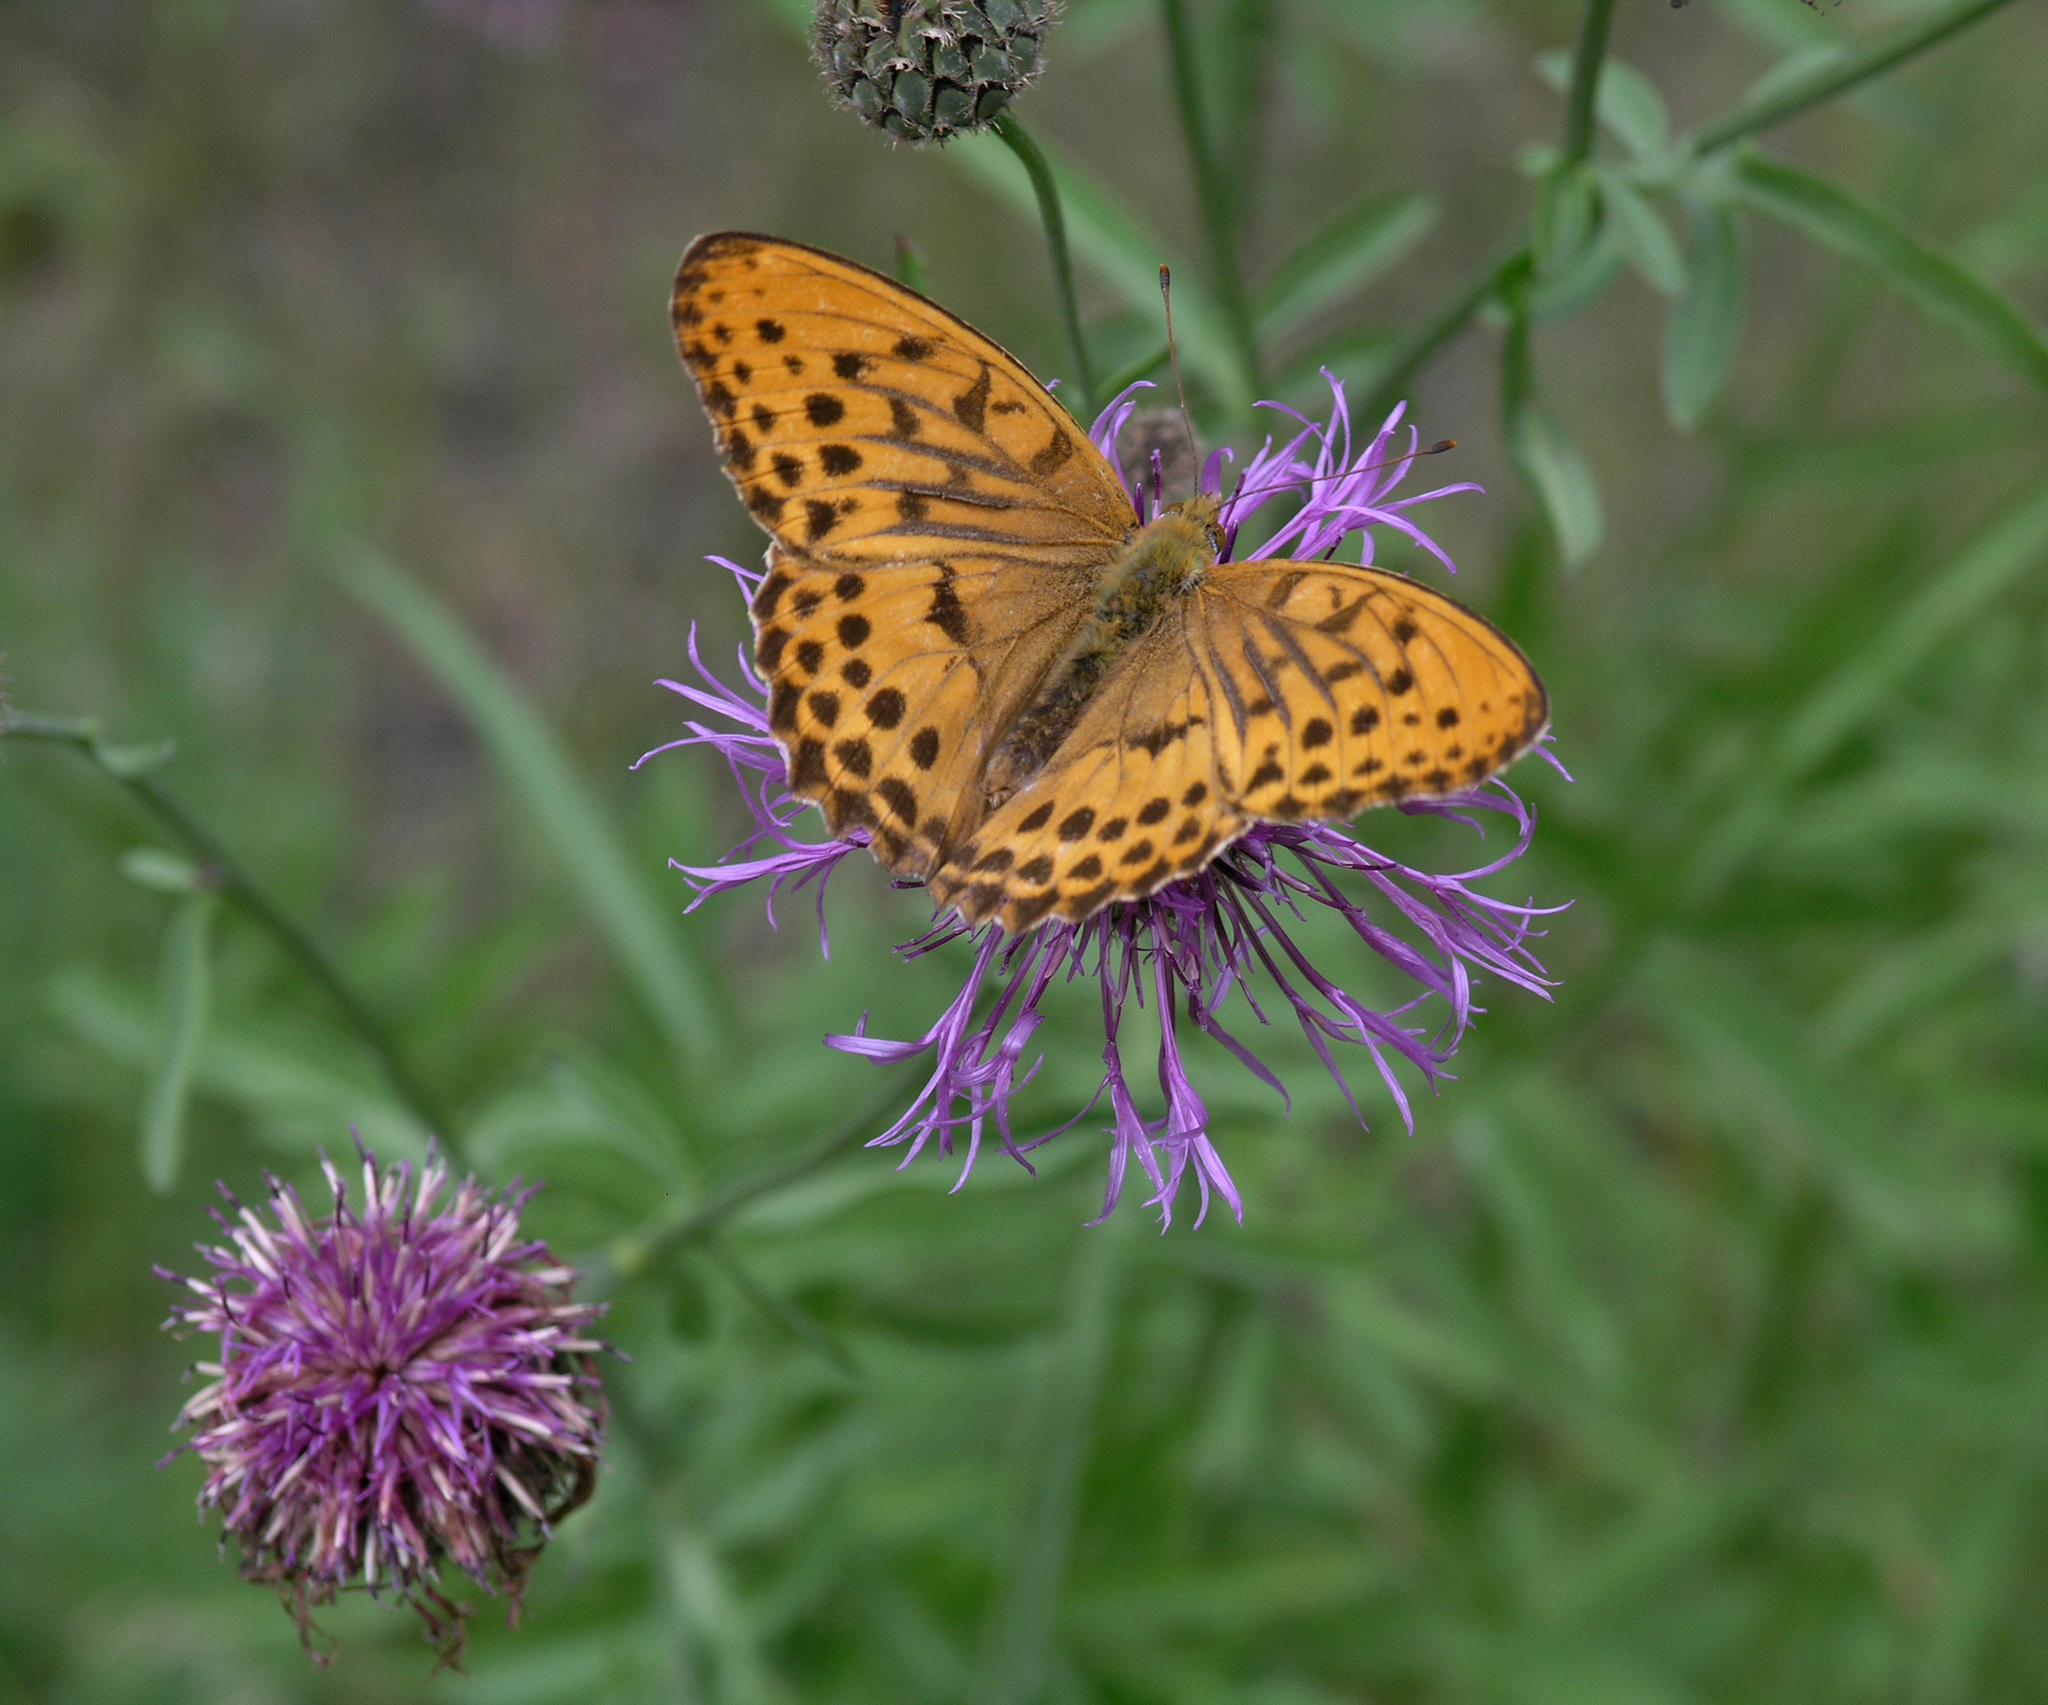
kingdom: Plantae
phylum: Tracheophyta
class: Magnoliopsida
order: Asterales
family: Asteraceae
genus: Centaurea
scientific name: Centaurea scabiosa
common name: Greater knapweed
